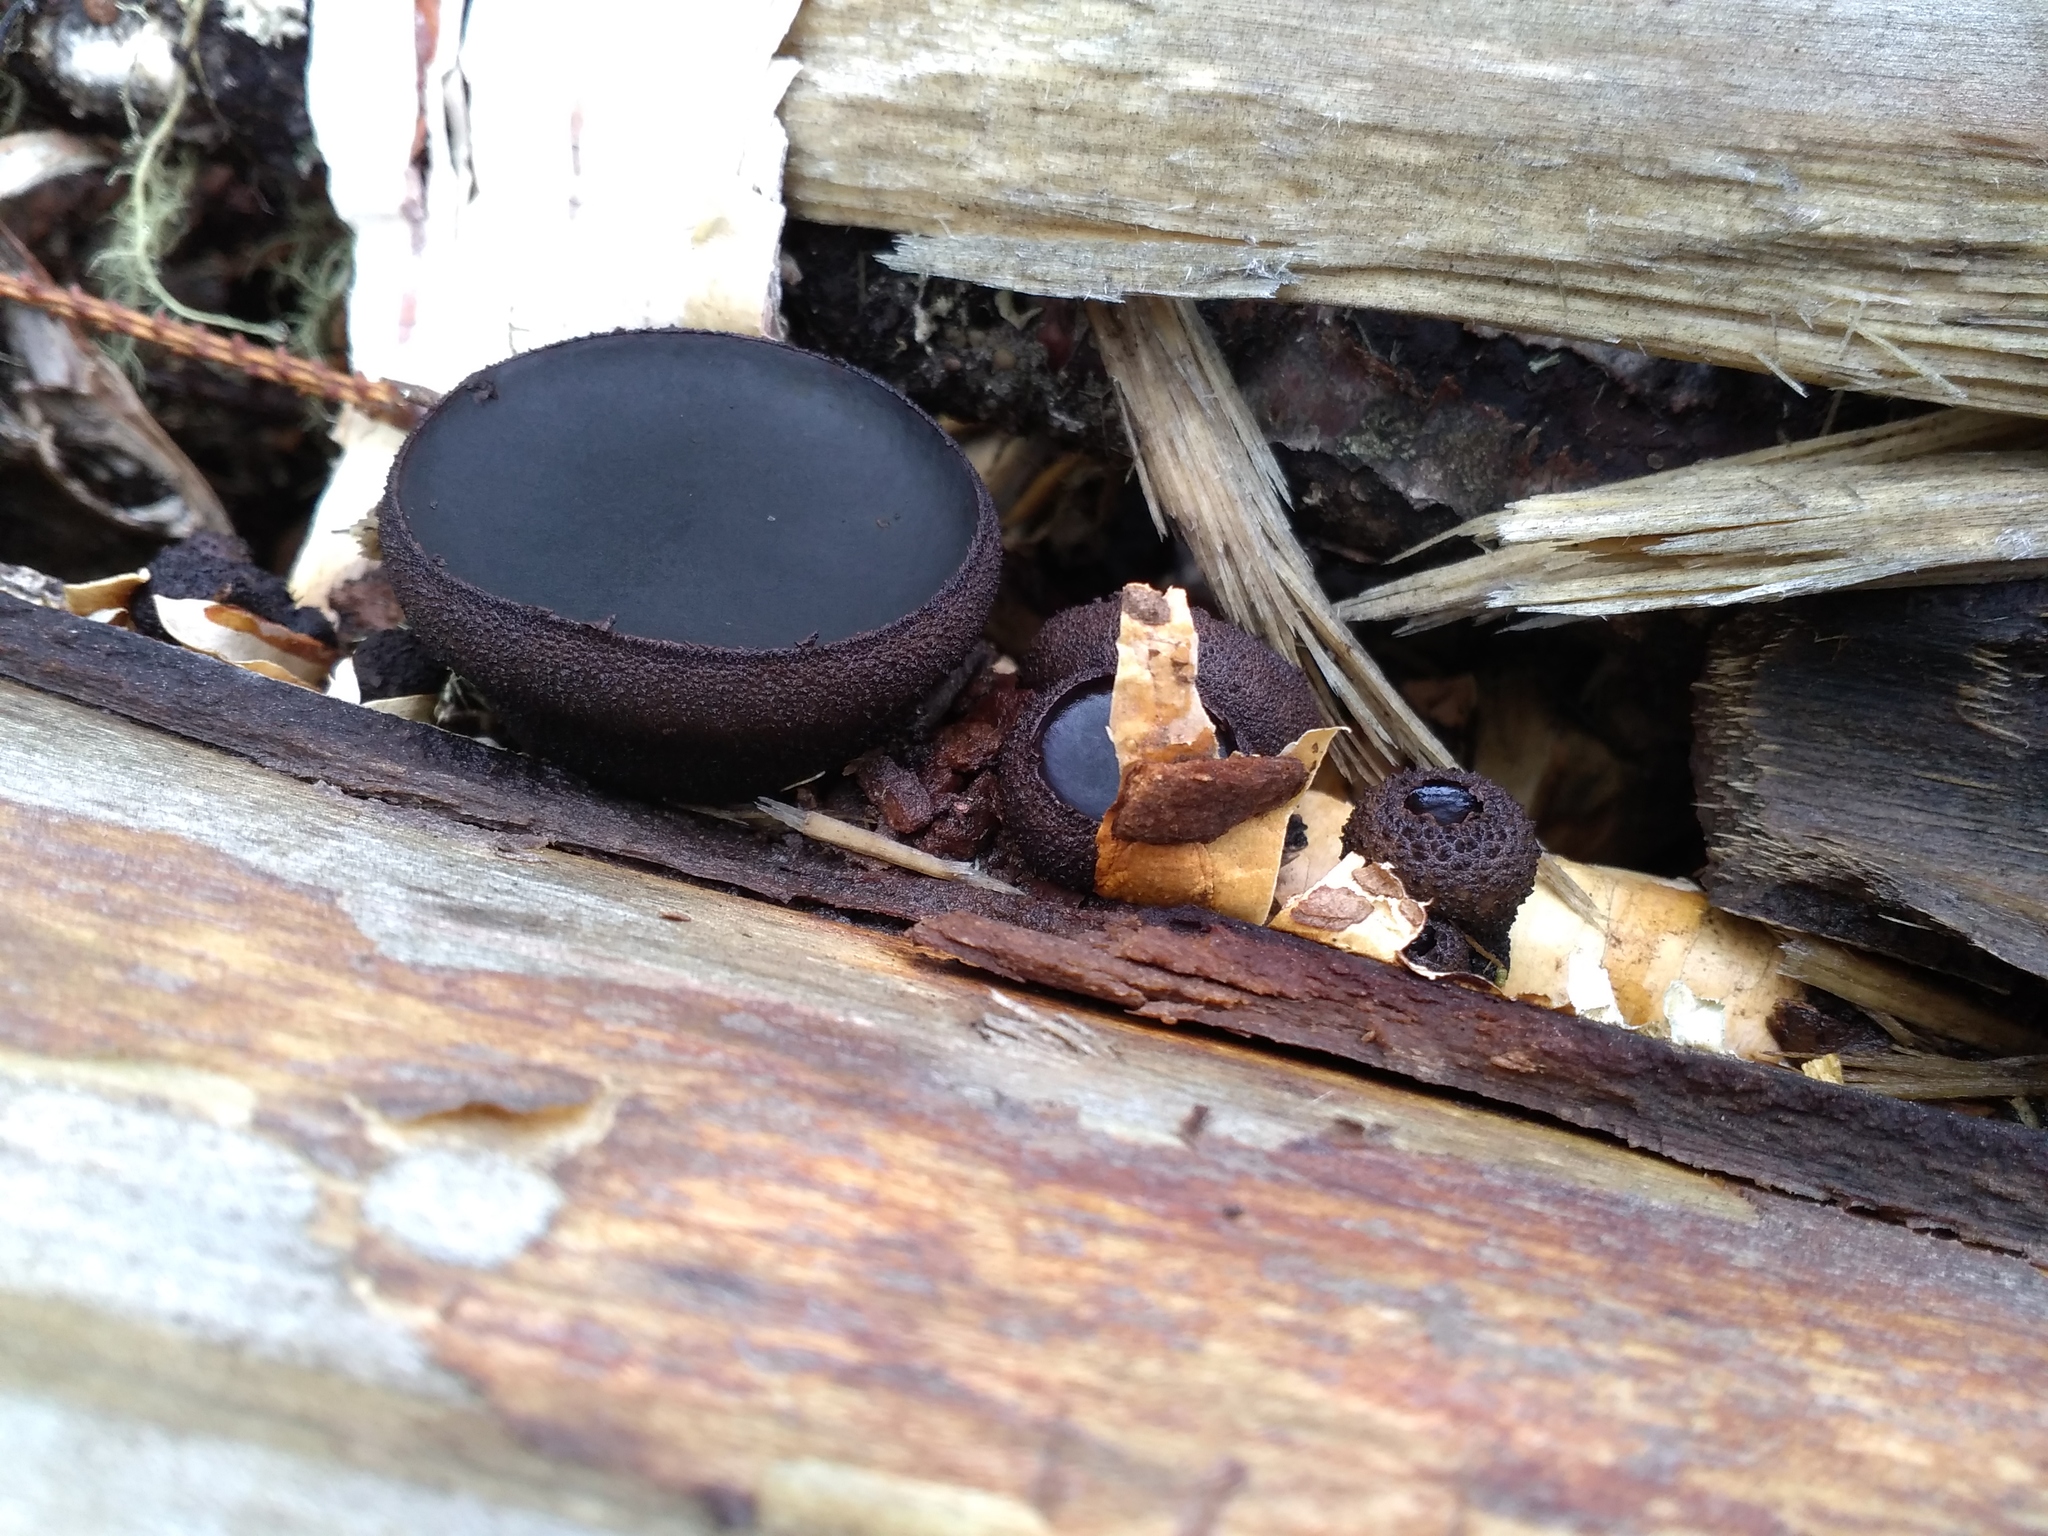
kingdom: Fungi
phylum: Ascomycota
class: Leotiomycetes
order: Phacidiales
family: Phacidiaceae
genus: Bulgaria
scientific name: Bulgaria inquinans
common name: Black bulgar
